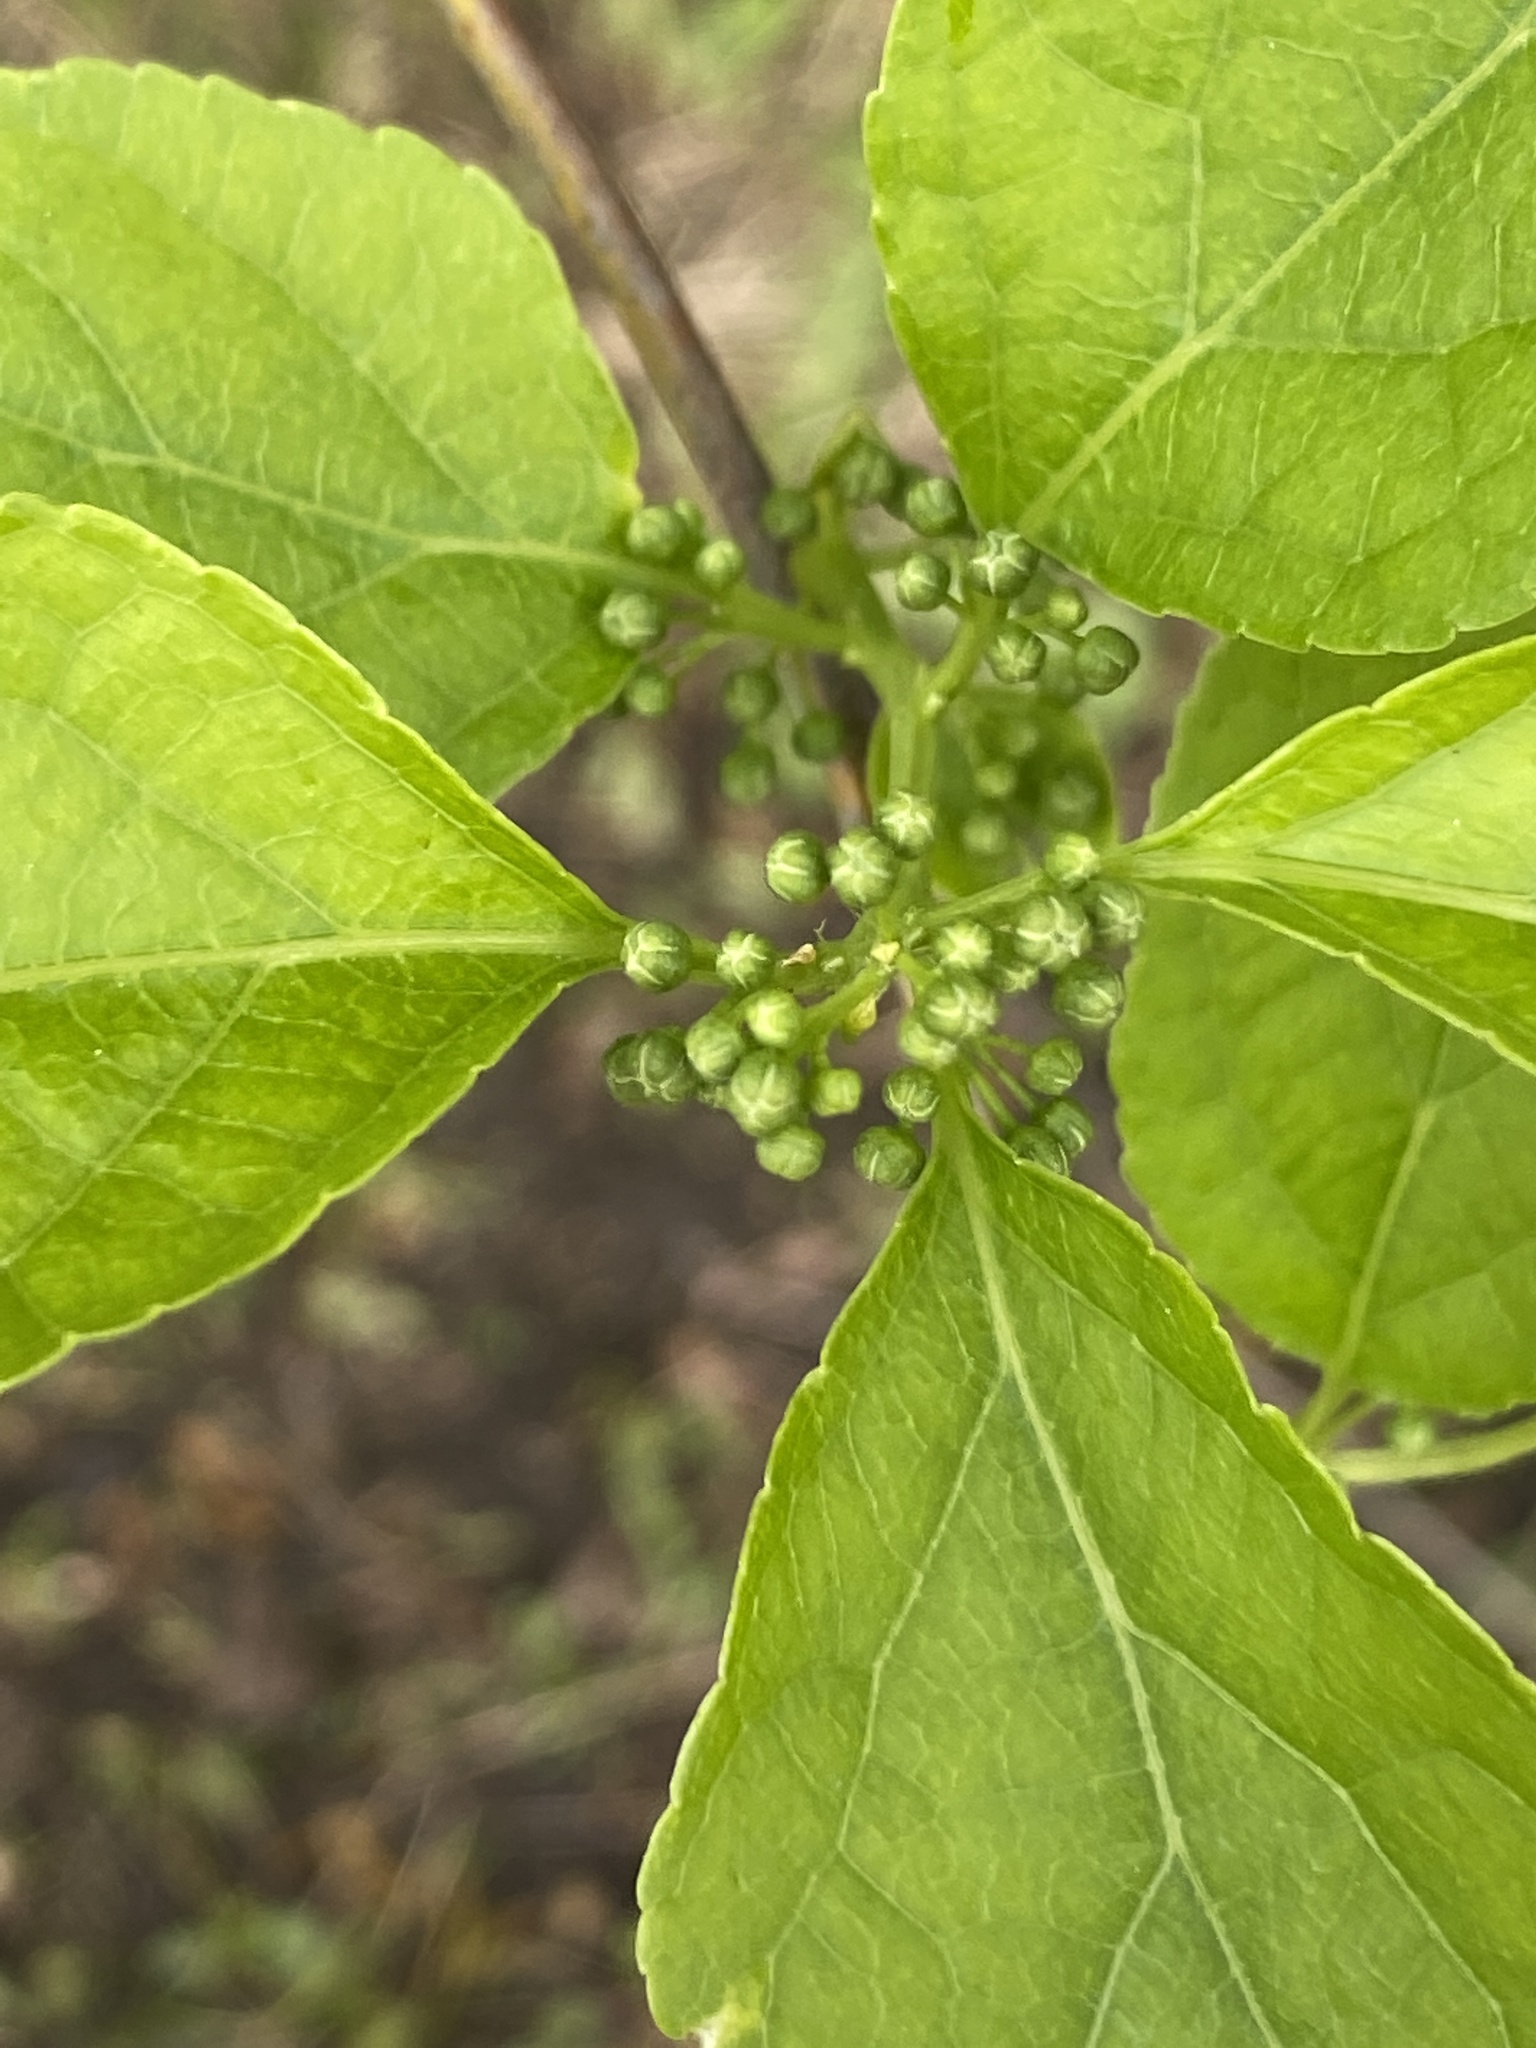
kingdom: Plantae
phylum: Tracheophyta
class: Magnoliopsida
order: Celastrales
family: Celastraceae
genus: Celastrus
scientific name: Celastrus orbiculatus
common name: Oriental bittersweet
